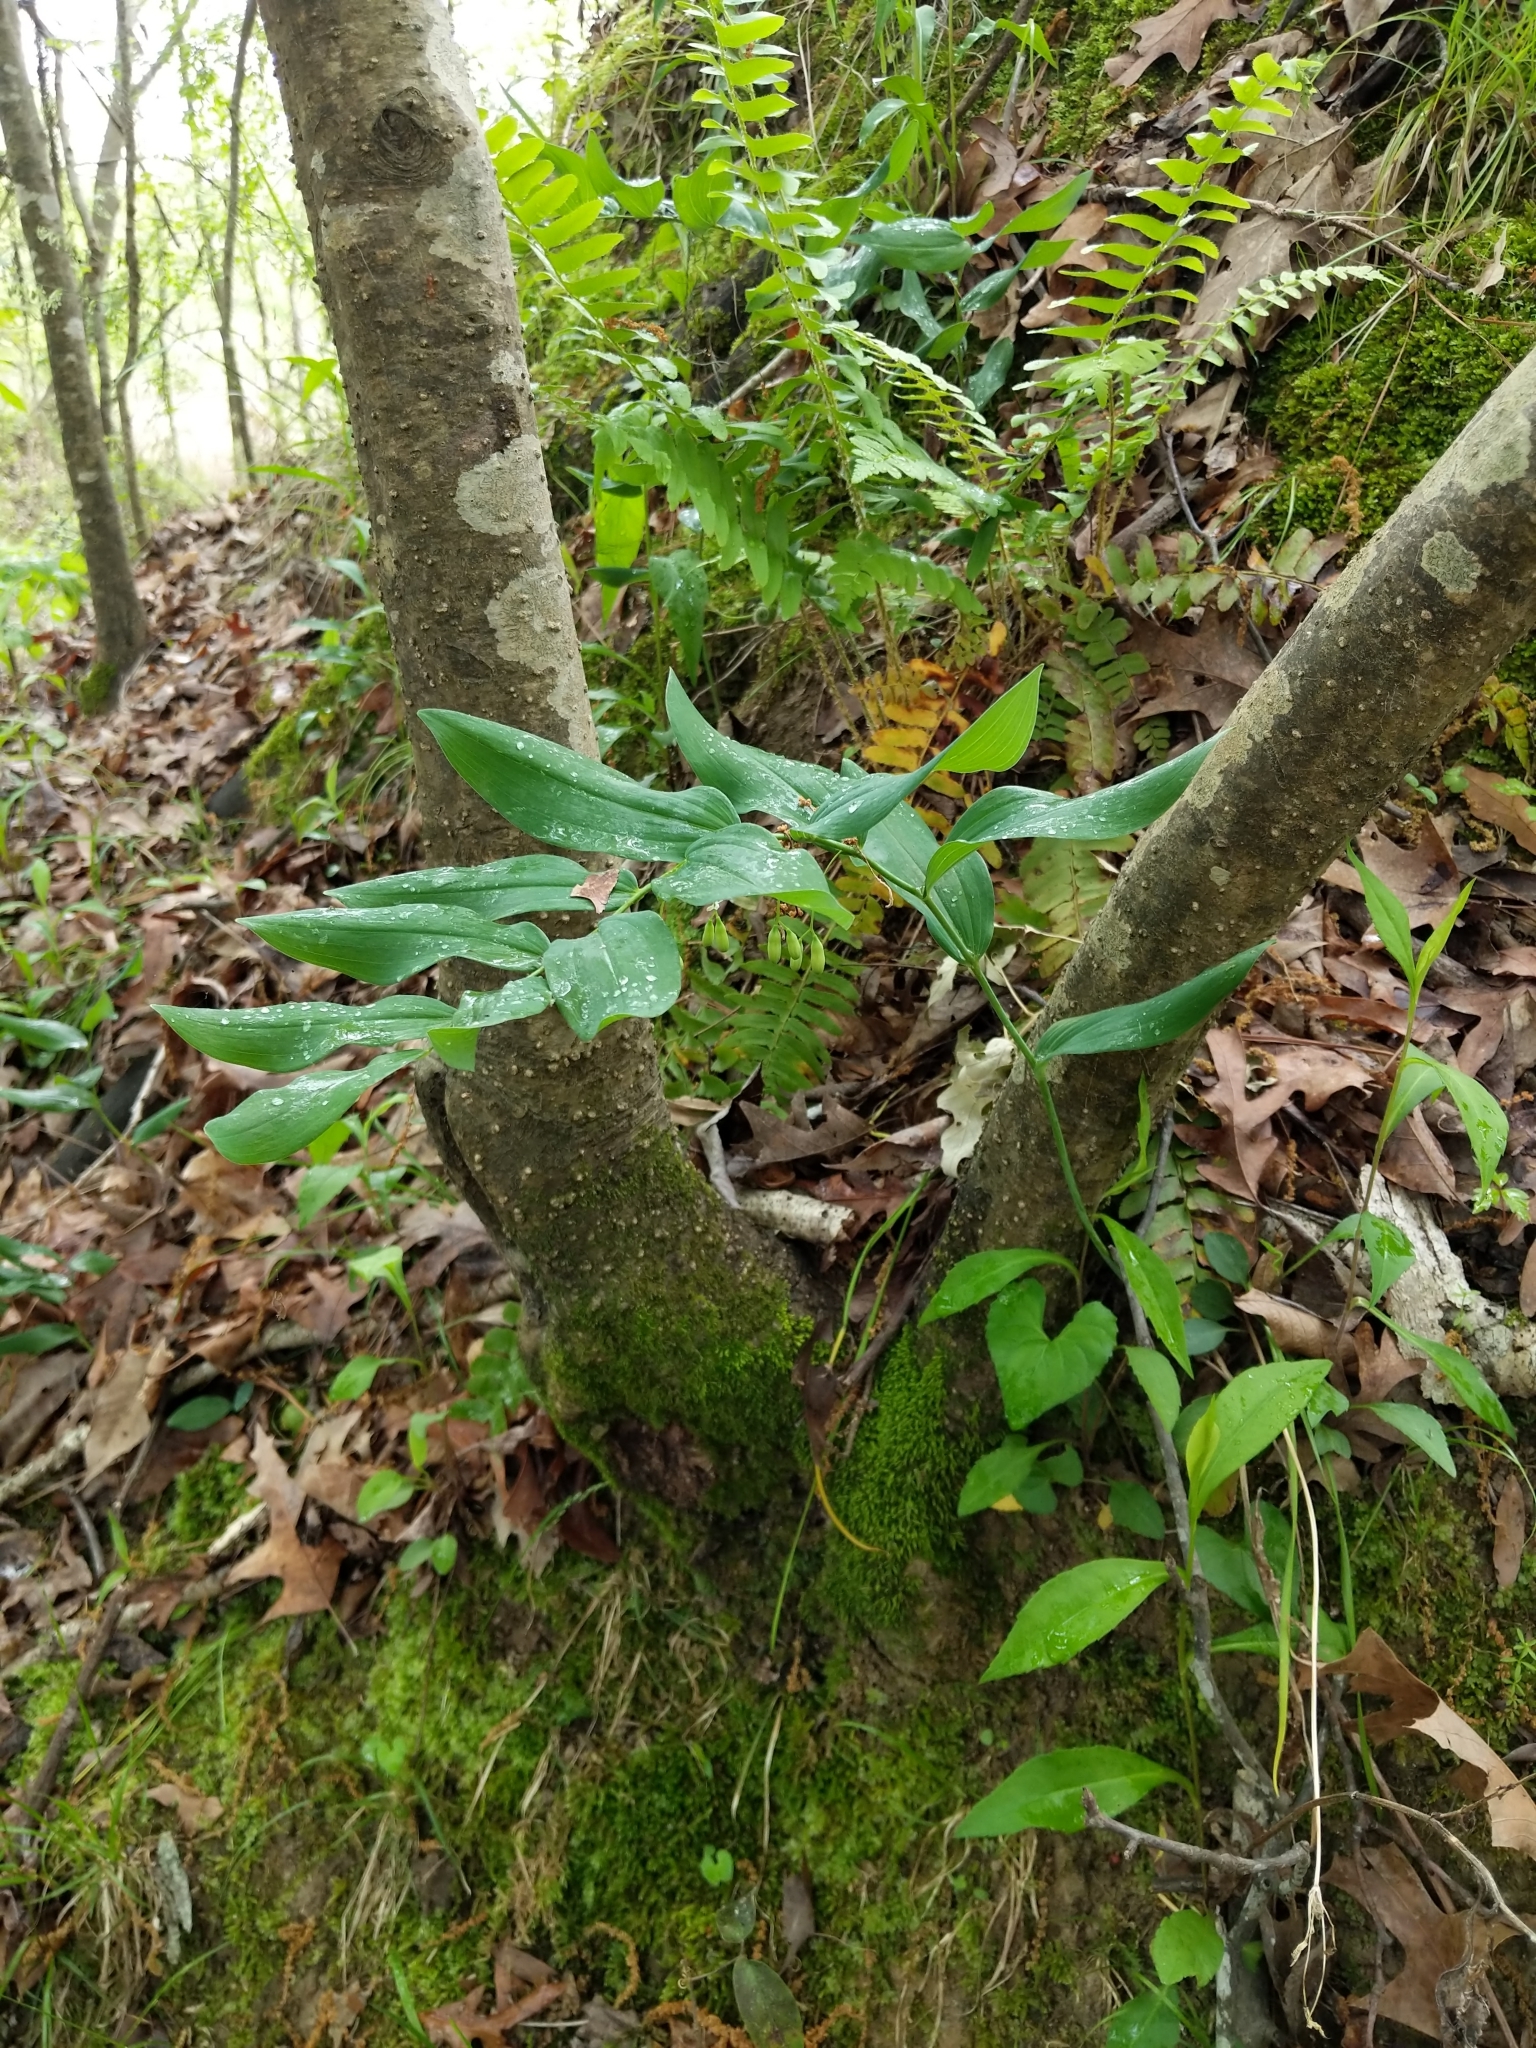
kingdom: Plantae
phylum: Tracheophyta
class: Liliopsida
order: Asparagales
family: Asparagaceae
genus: Polygonatum
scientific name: Polygonatum biflorum
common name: American solomon's-seal
